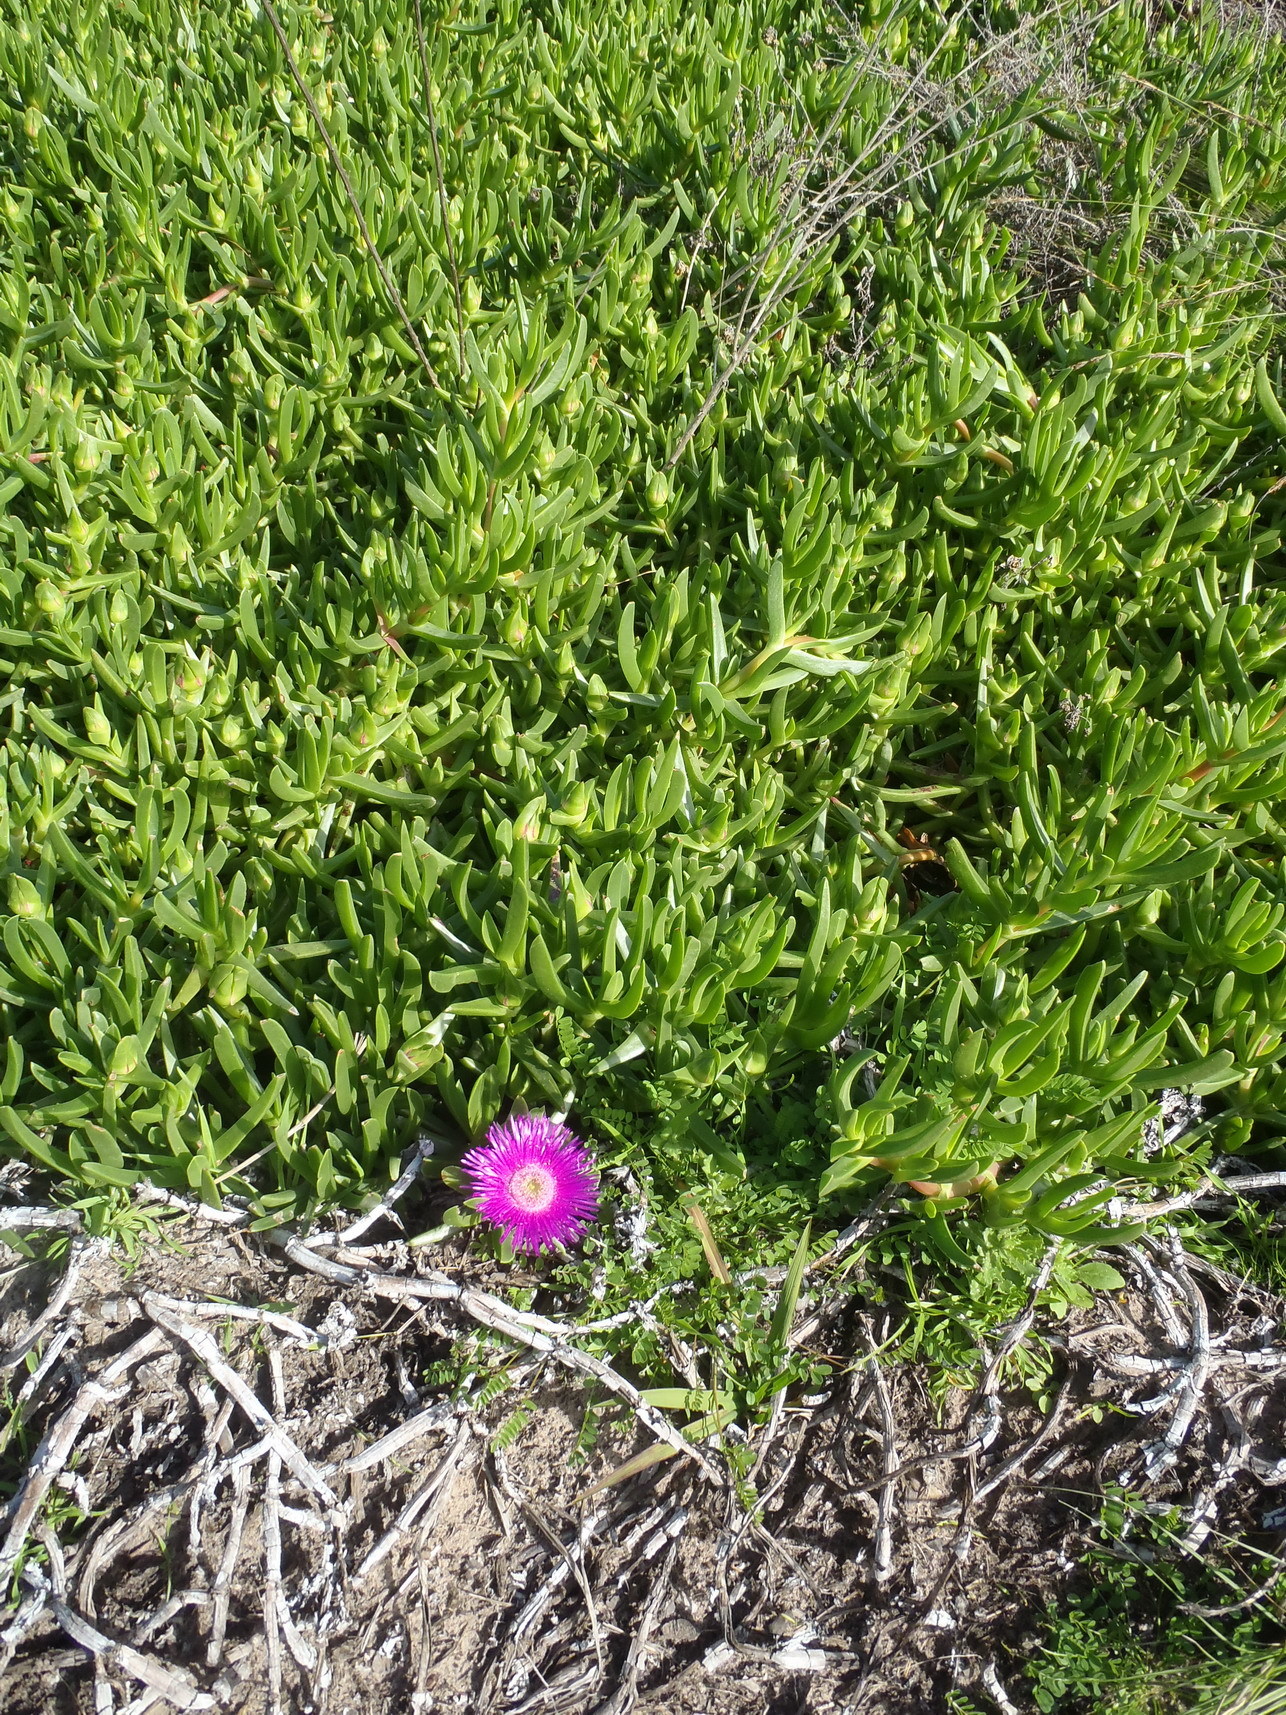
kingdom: Plantae
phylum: Tracheophyta
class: Magnoliopsida
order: Caryophyllales
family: Aizoaceae
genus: Carpobrotus
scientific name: Carpobrotus deliciosus
